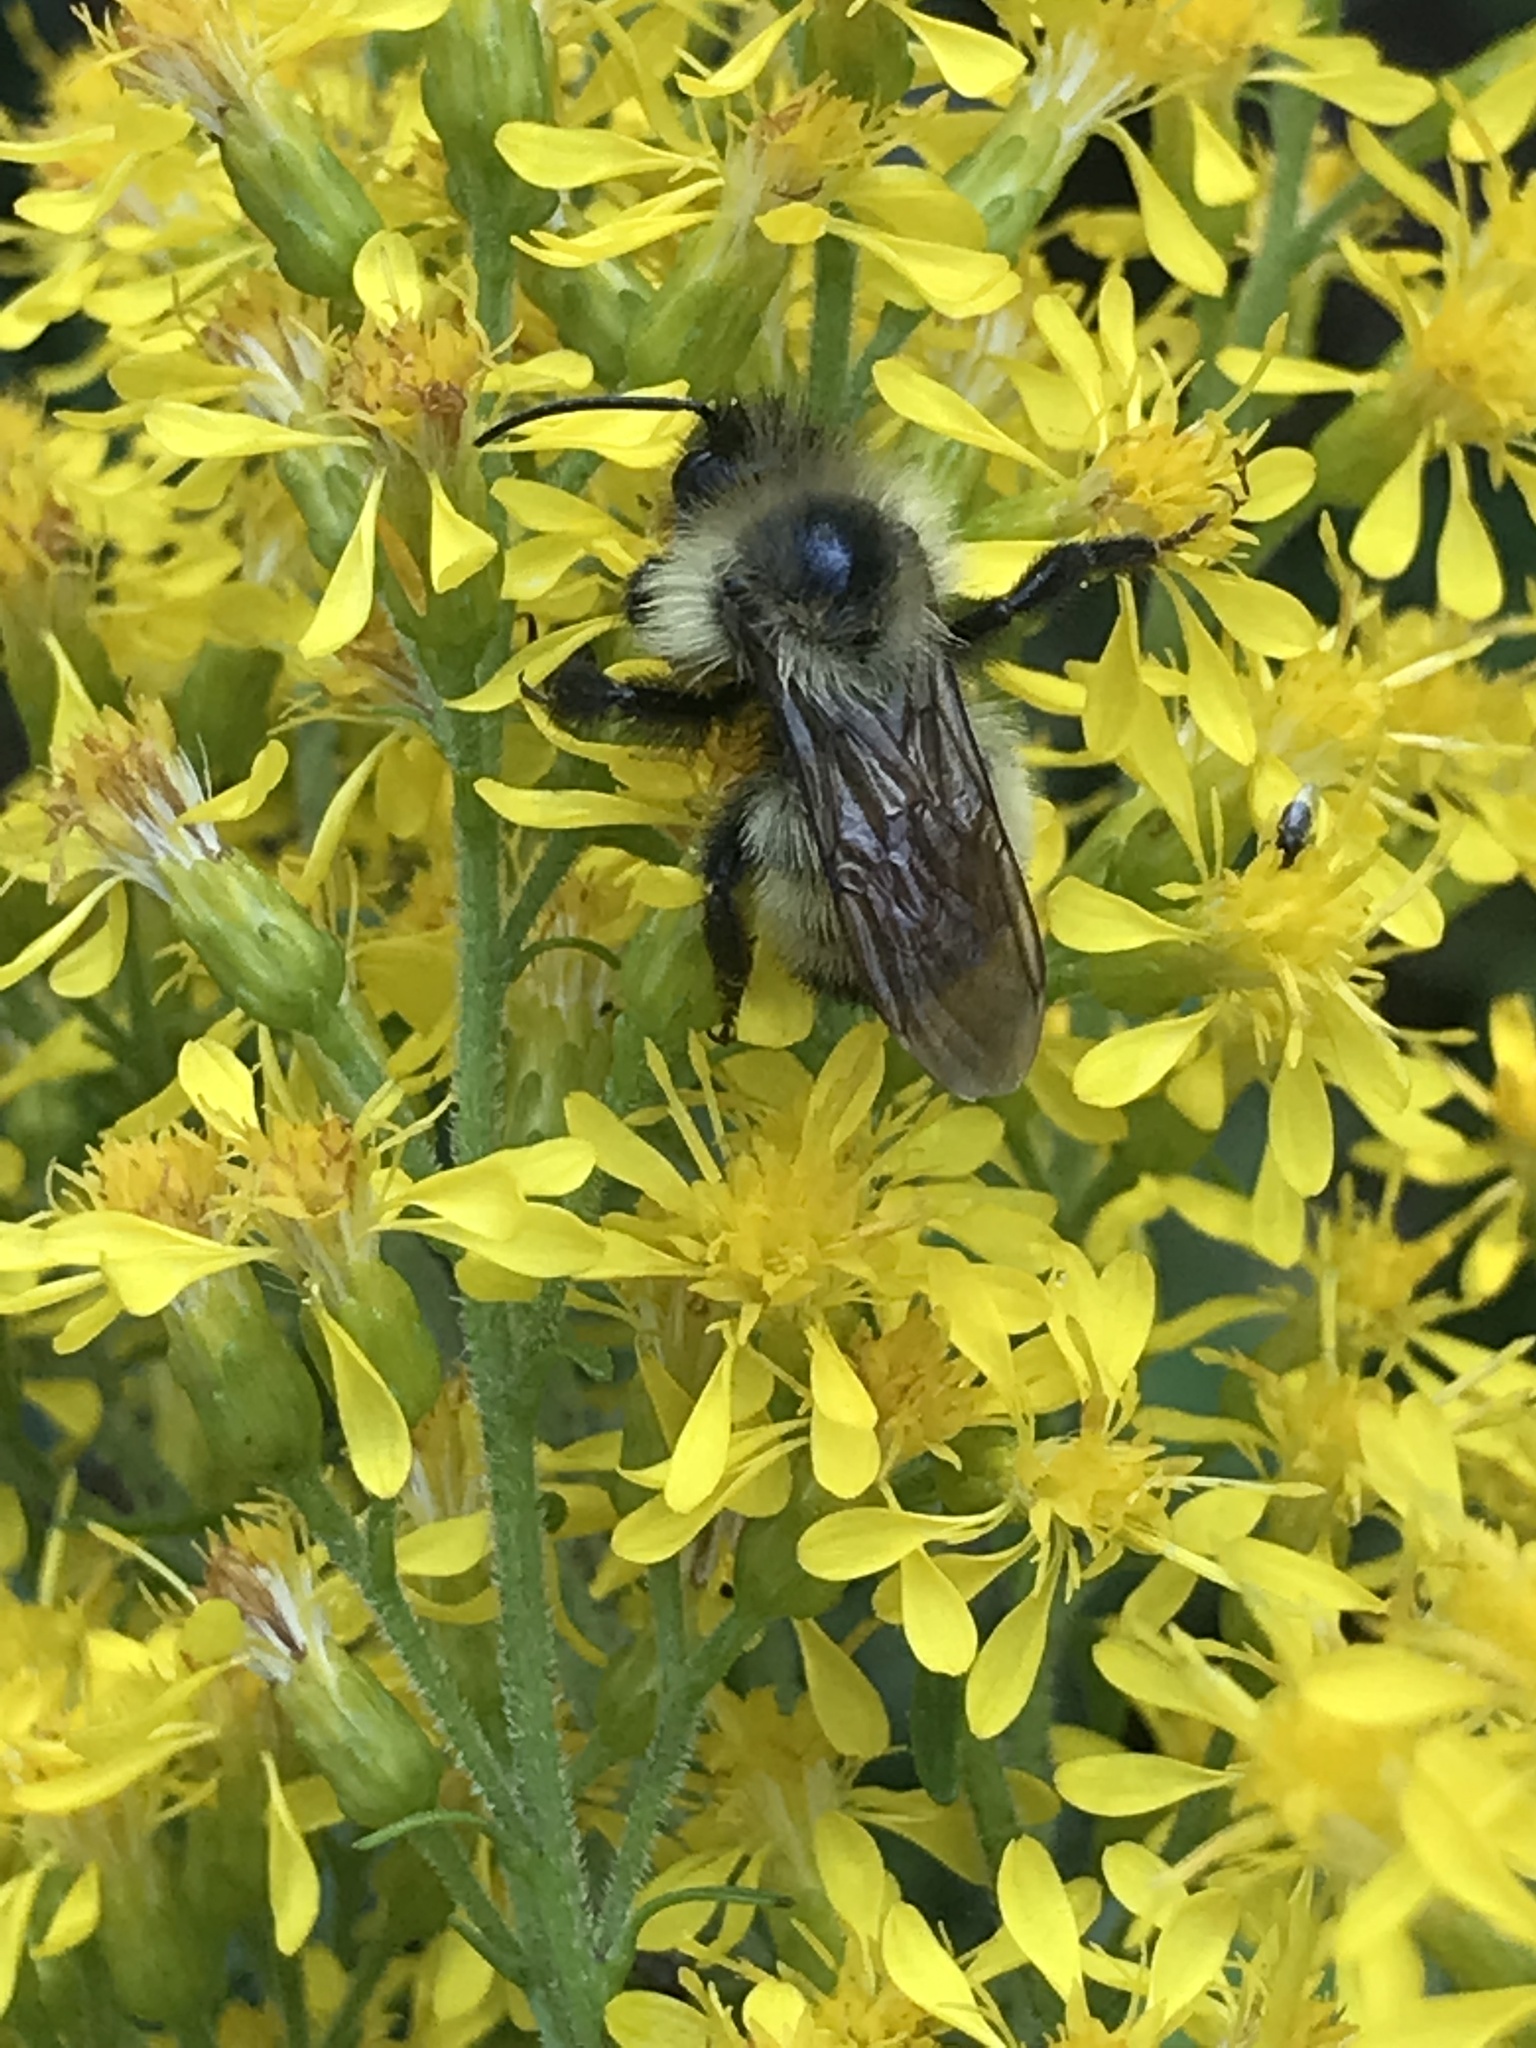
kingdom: Animalia
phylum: Arthropoda
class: Insecta
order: Hymenoptera
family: Apidae
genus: Bombus
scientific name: Bombus citrinus
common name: Lemon cuckoo bumble bee
